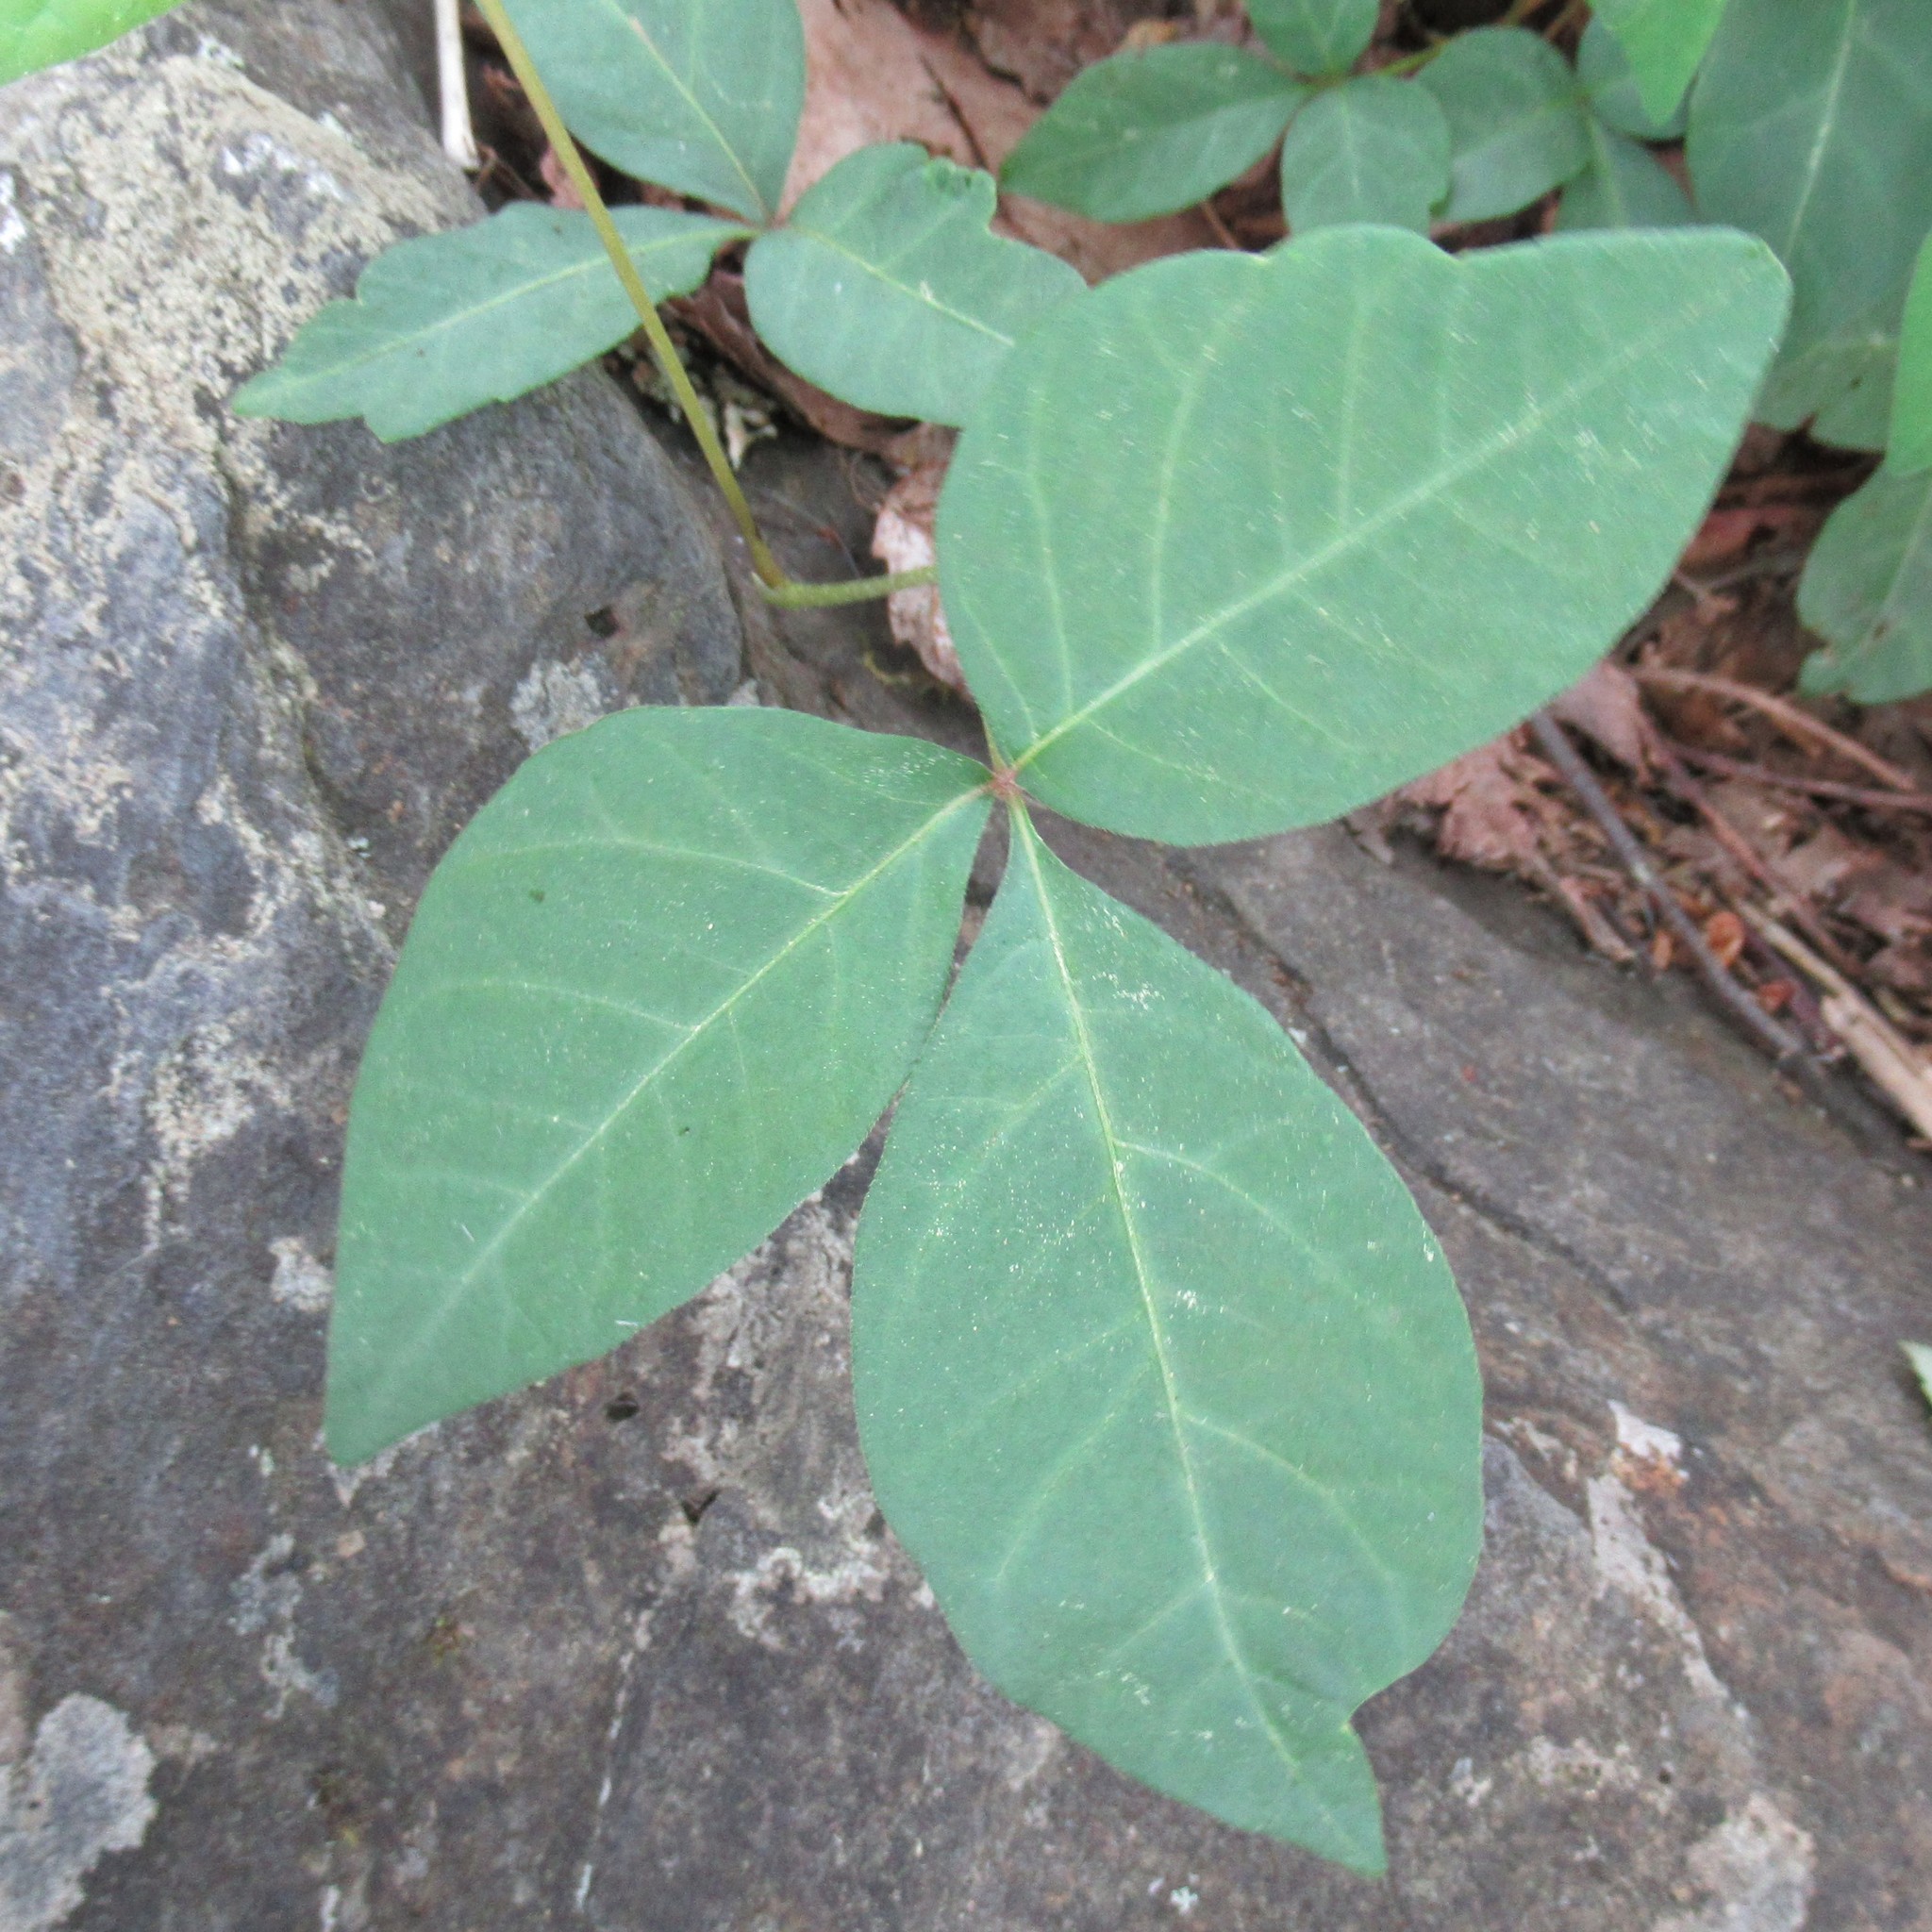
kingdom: Plantae
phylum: Tracheophyta
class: Magnoliopsida
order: Sapindales
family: Anacardiaceae
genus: Toxicodendron
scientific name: Toxicodendron radicans
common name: Poison ivy
